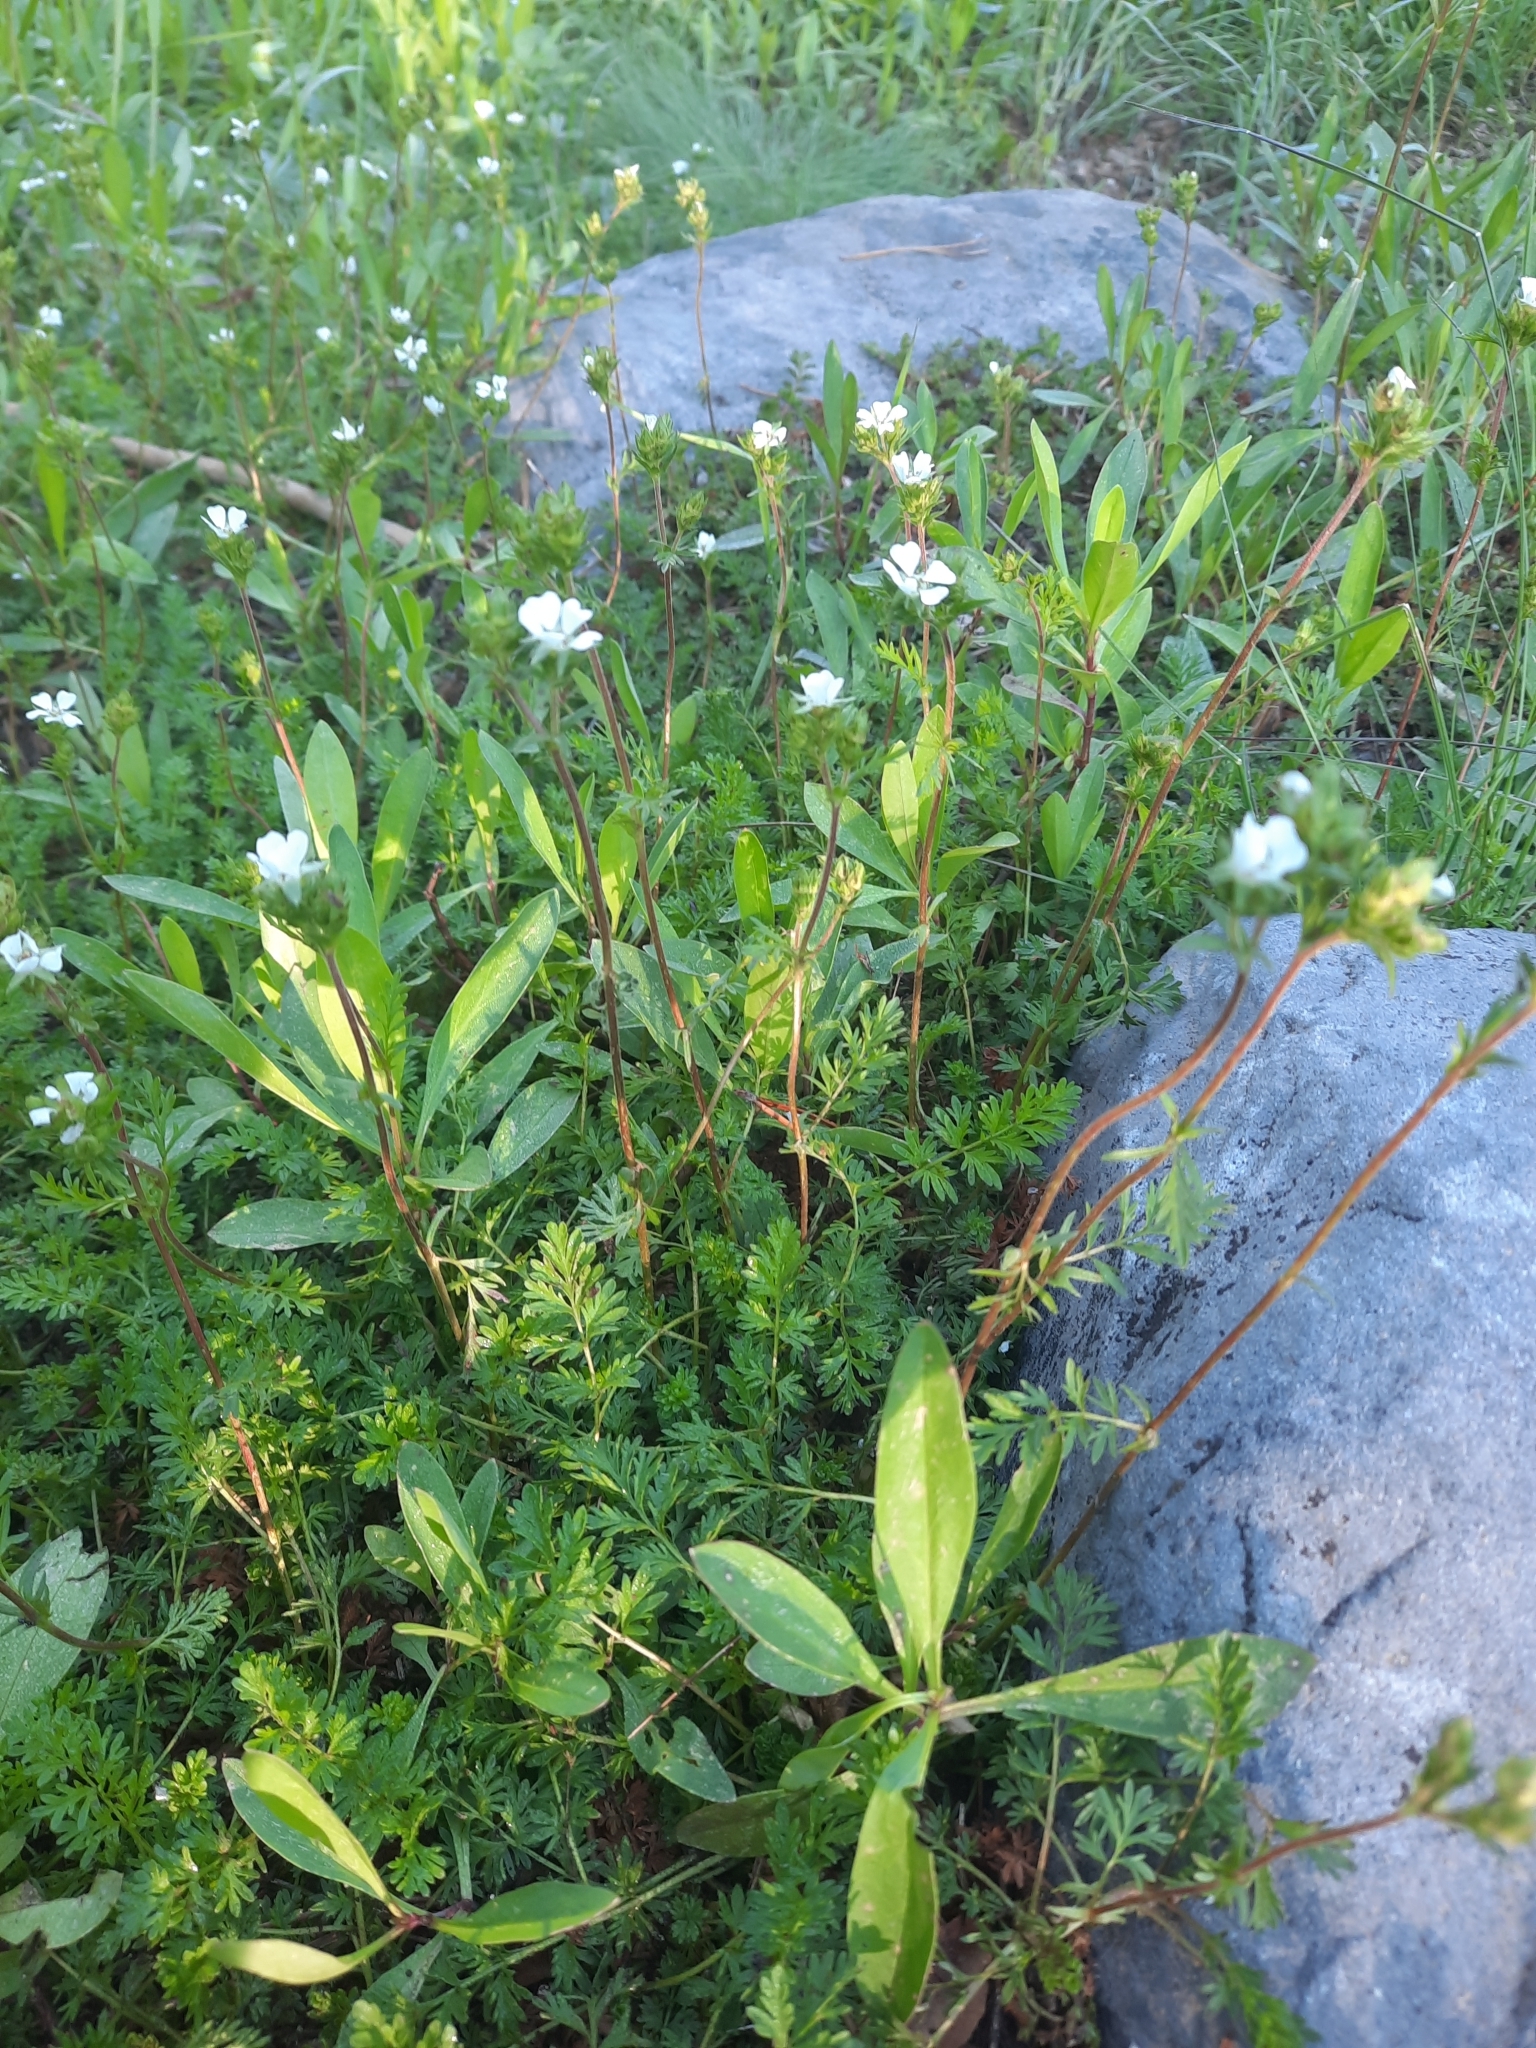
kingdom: Plantae
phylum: Tracheophyta
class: Magnoliopsida
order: Rosales
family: Rosaceae
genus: Potentilla
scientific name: Potentilla douglasii
